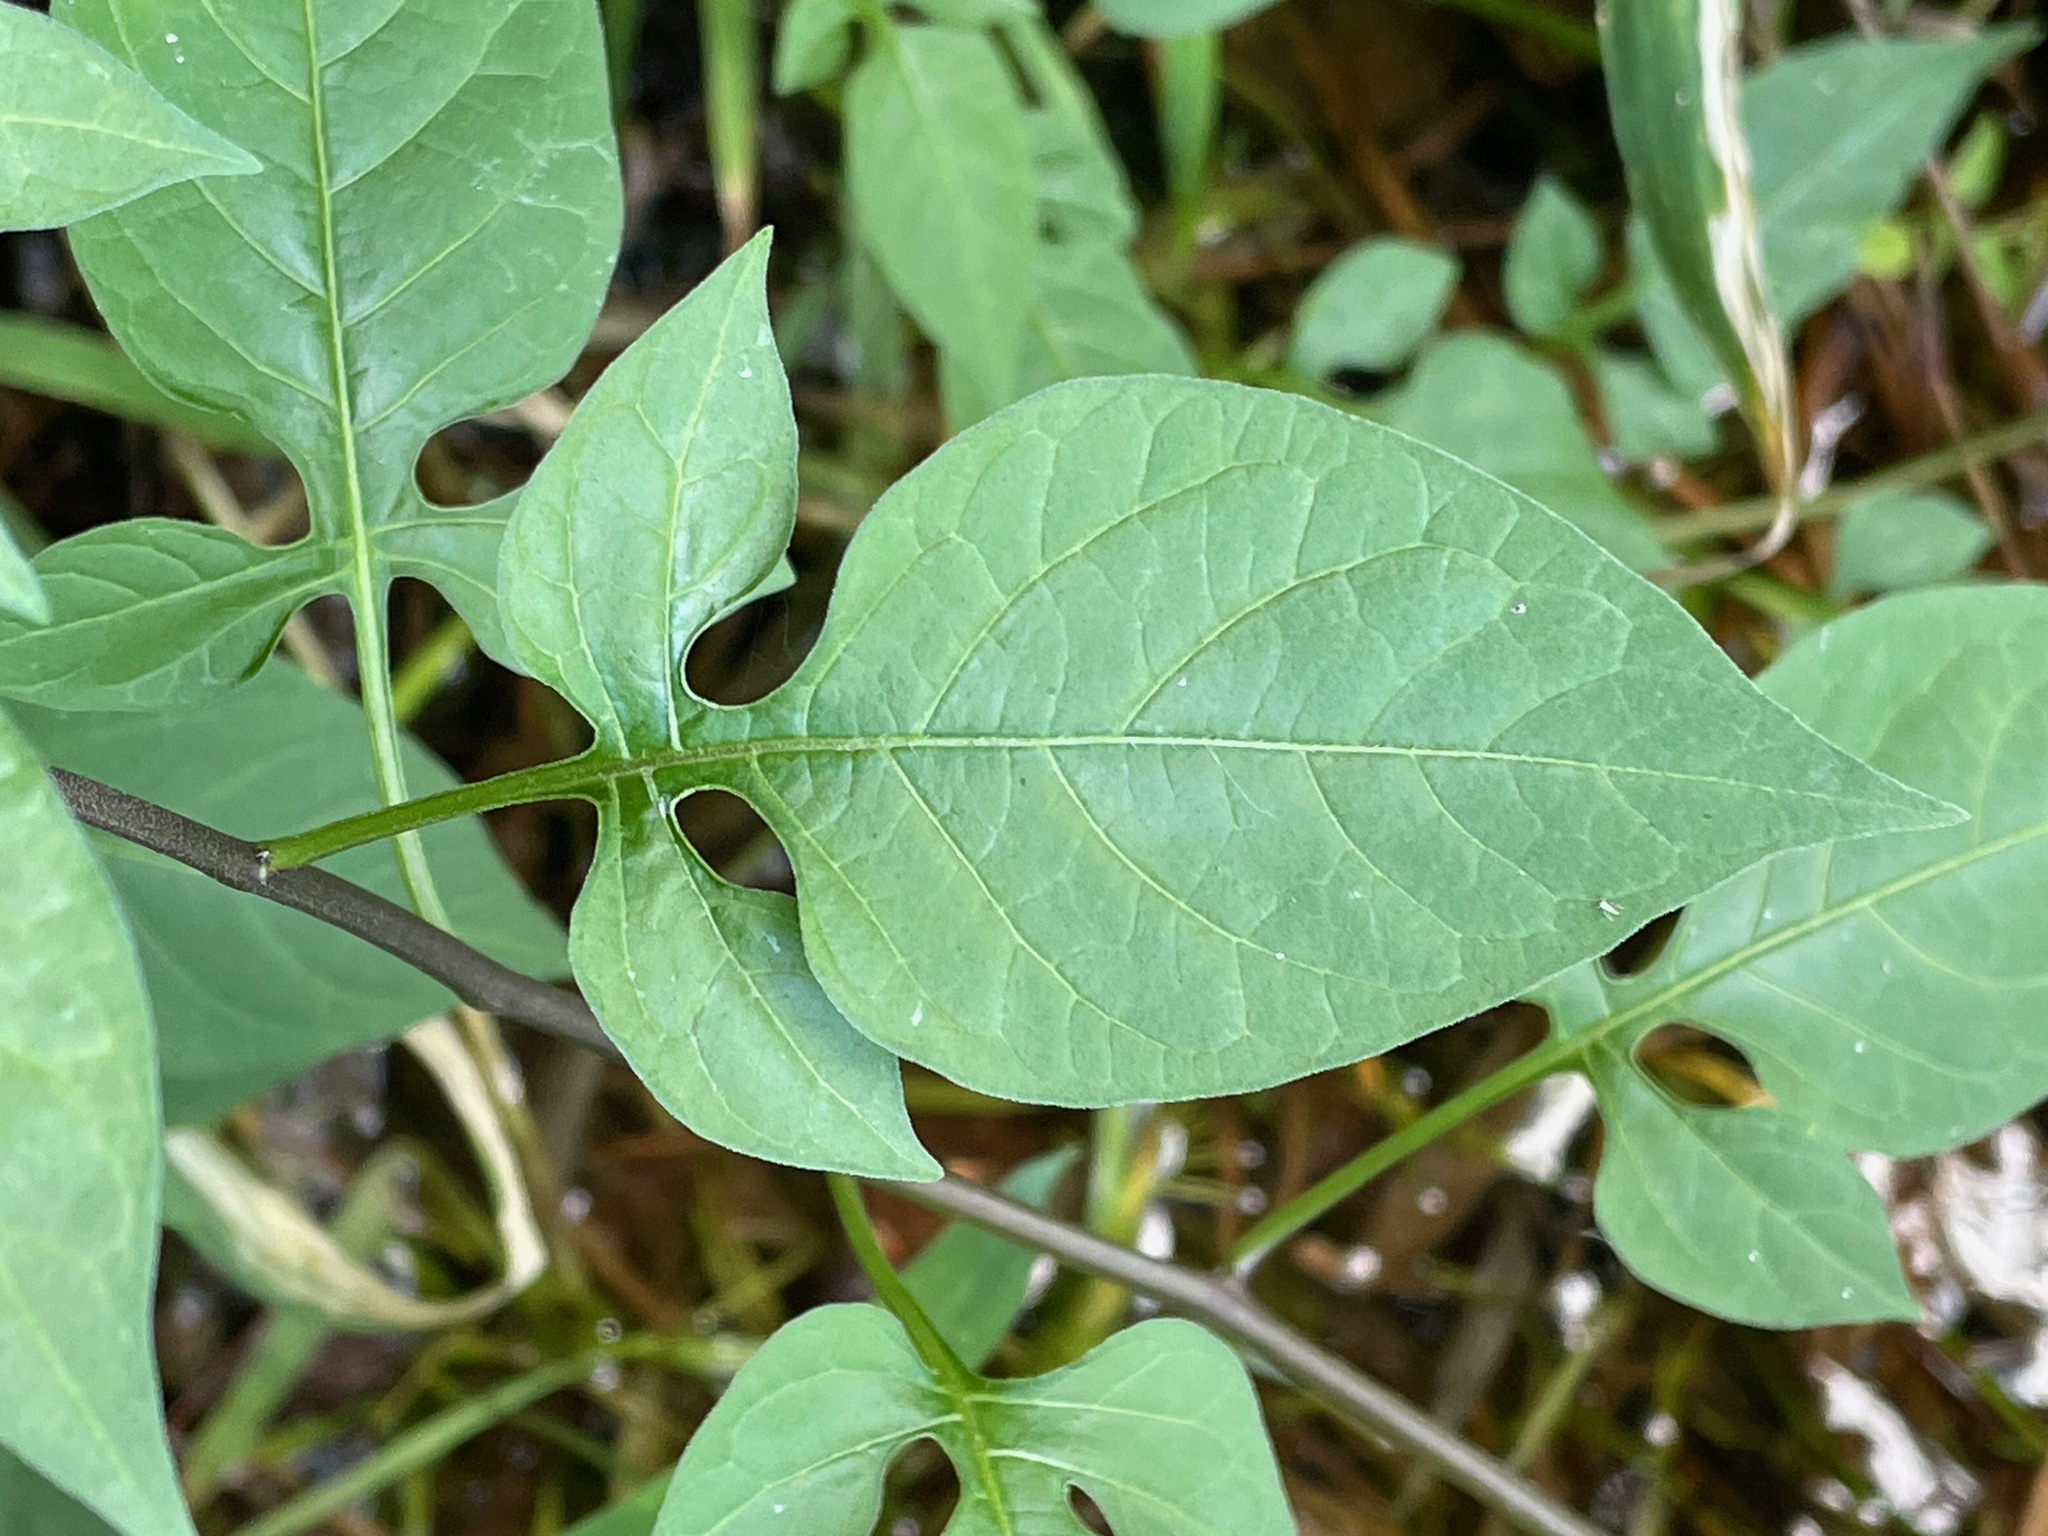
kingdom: Plantae
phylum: Tracheophyta
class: Magnoliopsida
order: Solanales
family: Solanaceae
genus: Solanum
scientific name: Solanum dulcamara
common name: Climbing nightshade
